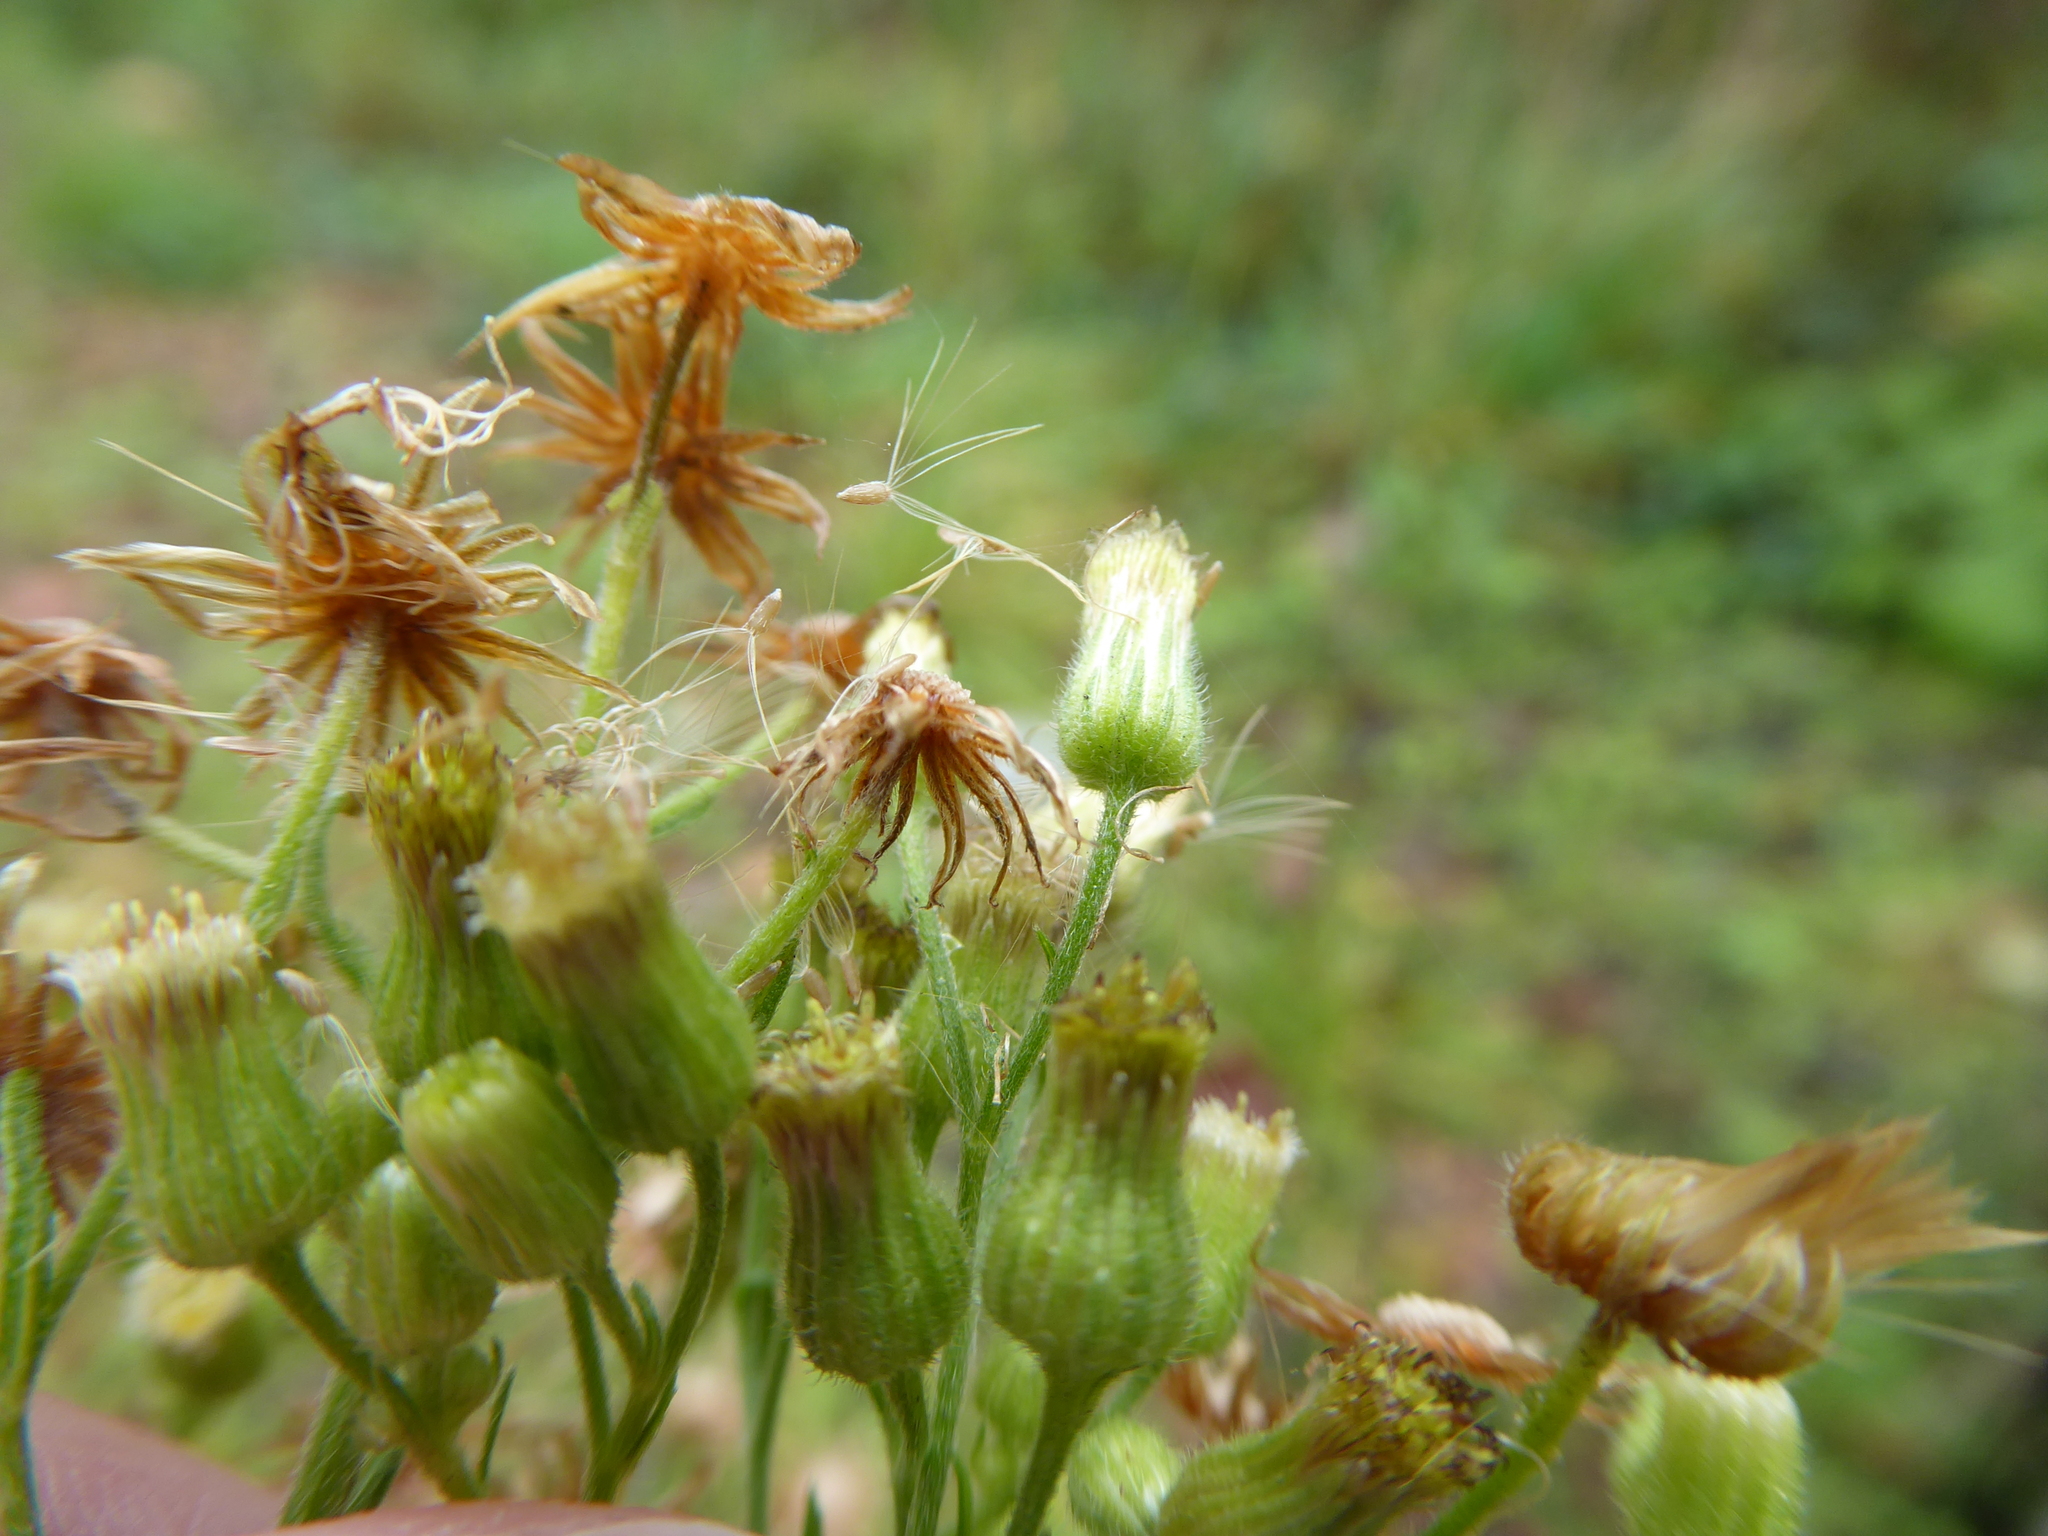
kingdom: Plantae
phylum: Tracheophyta
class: Magnoliopsida
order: Asterales
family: Asteraceae
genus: Erigeron
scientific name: Erigeron sumatrensis
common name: Daisy
